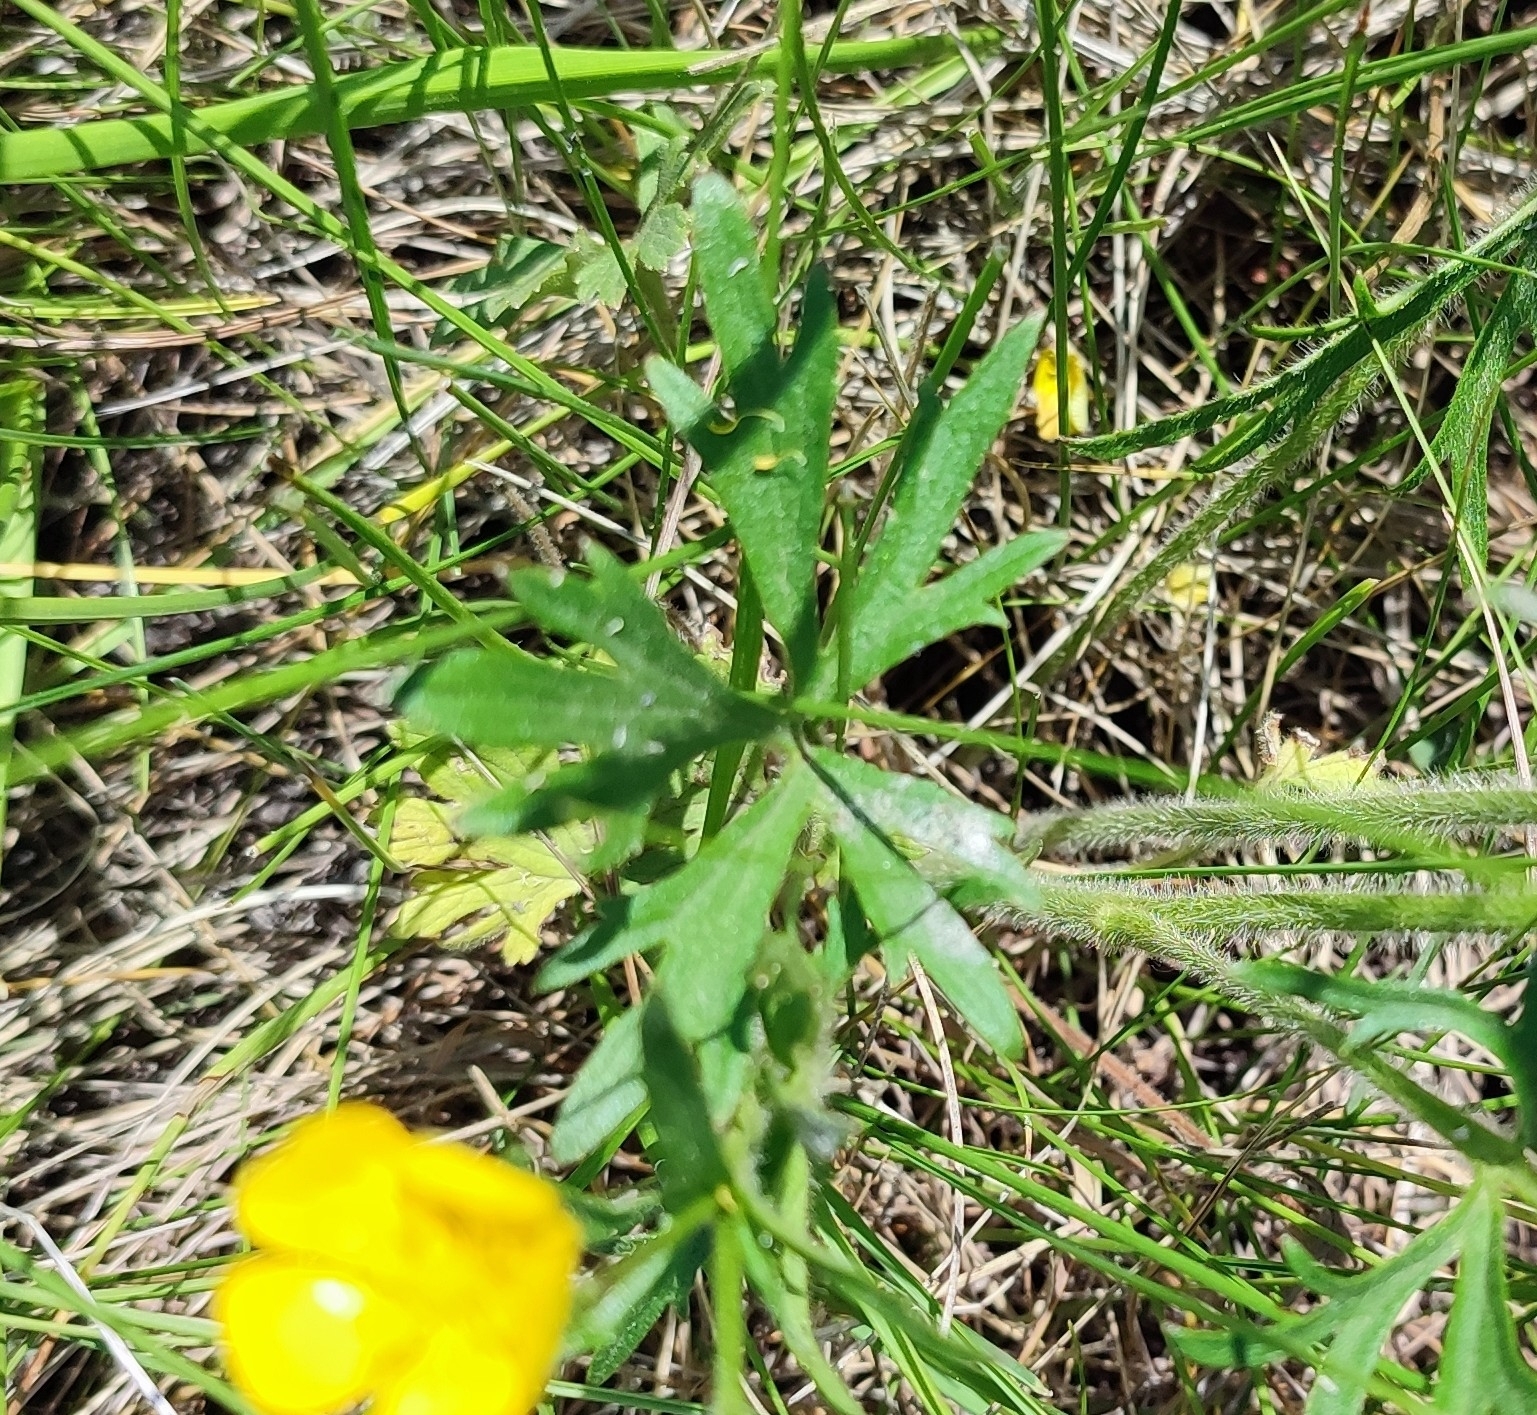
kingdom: Plantae
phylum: Tracheophyta
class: Magnoliopsida
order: Ranunculales
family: Ranunculaceae
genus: Ranunculus
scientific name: Ranunculus polyanthemos
